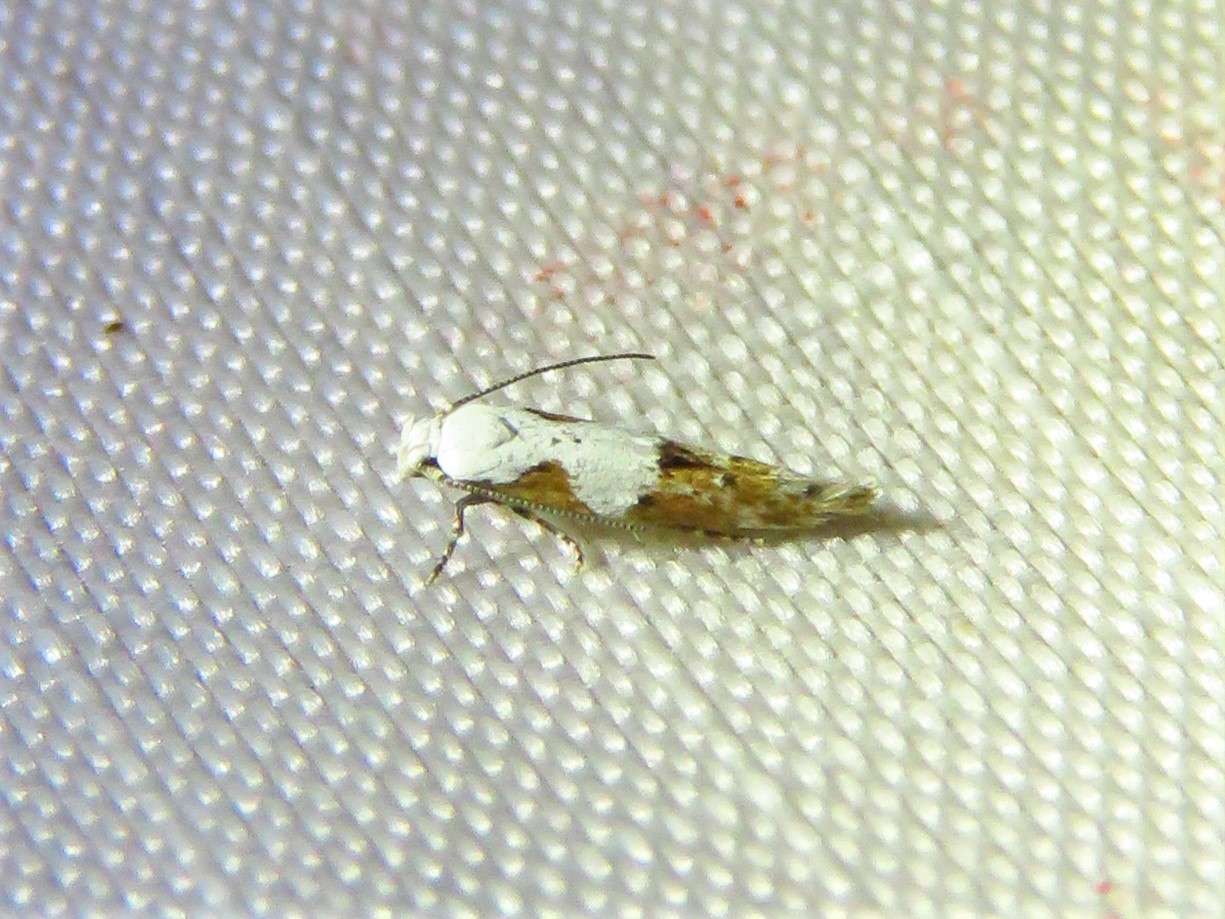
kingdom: Animalia
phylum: Arthropoda
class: Insecta
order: Lepidoptera
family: Momphidae
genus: Mompha
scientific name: Mompha circumscriptella
